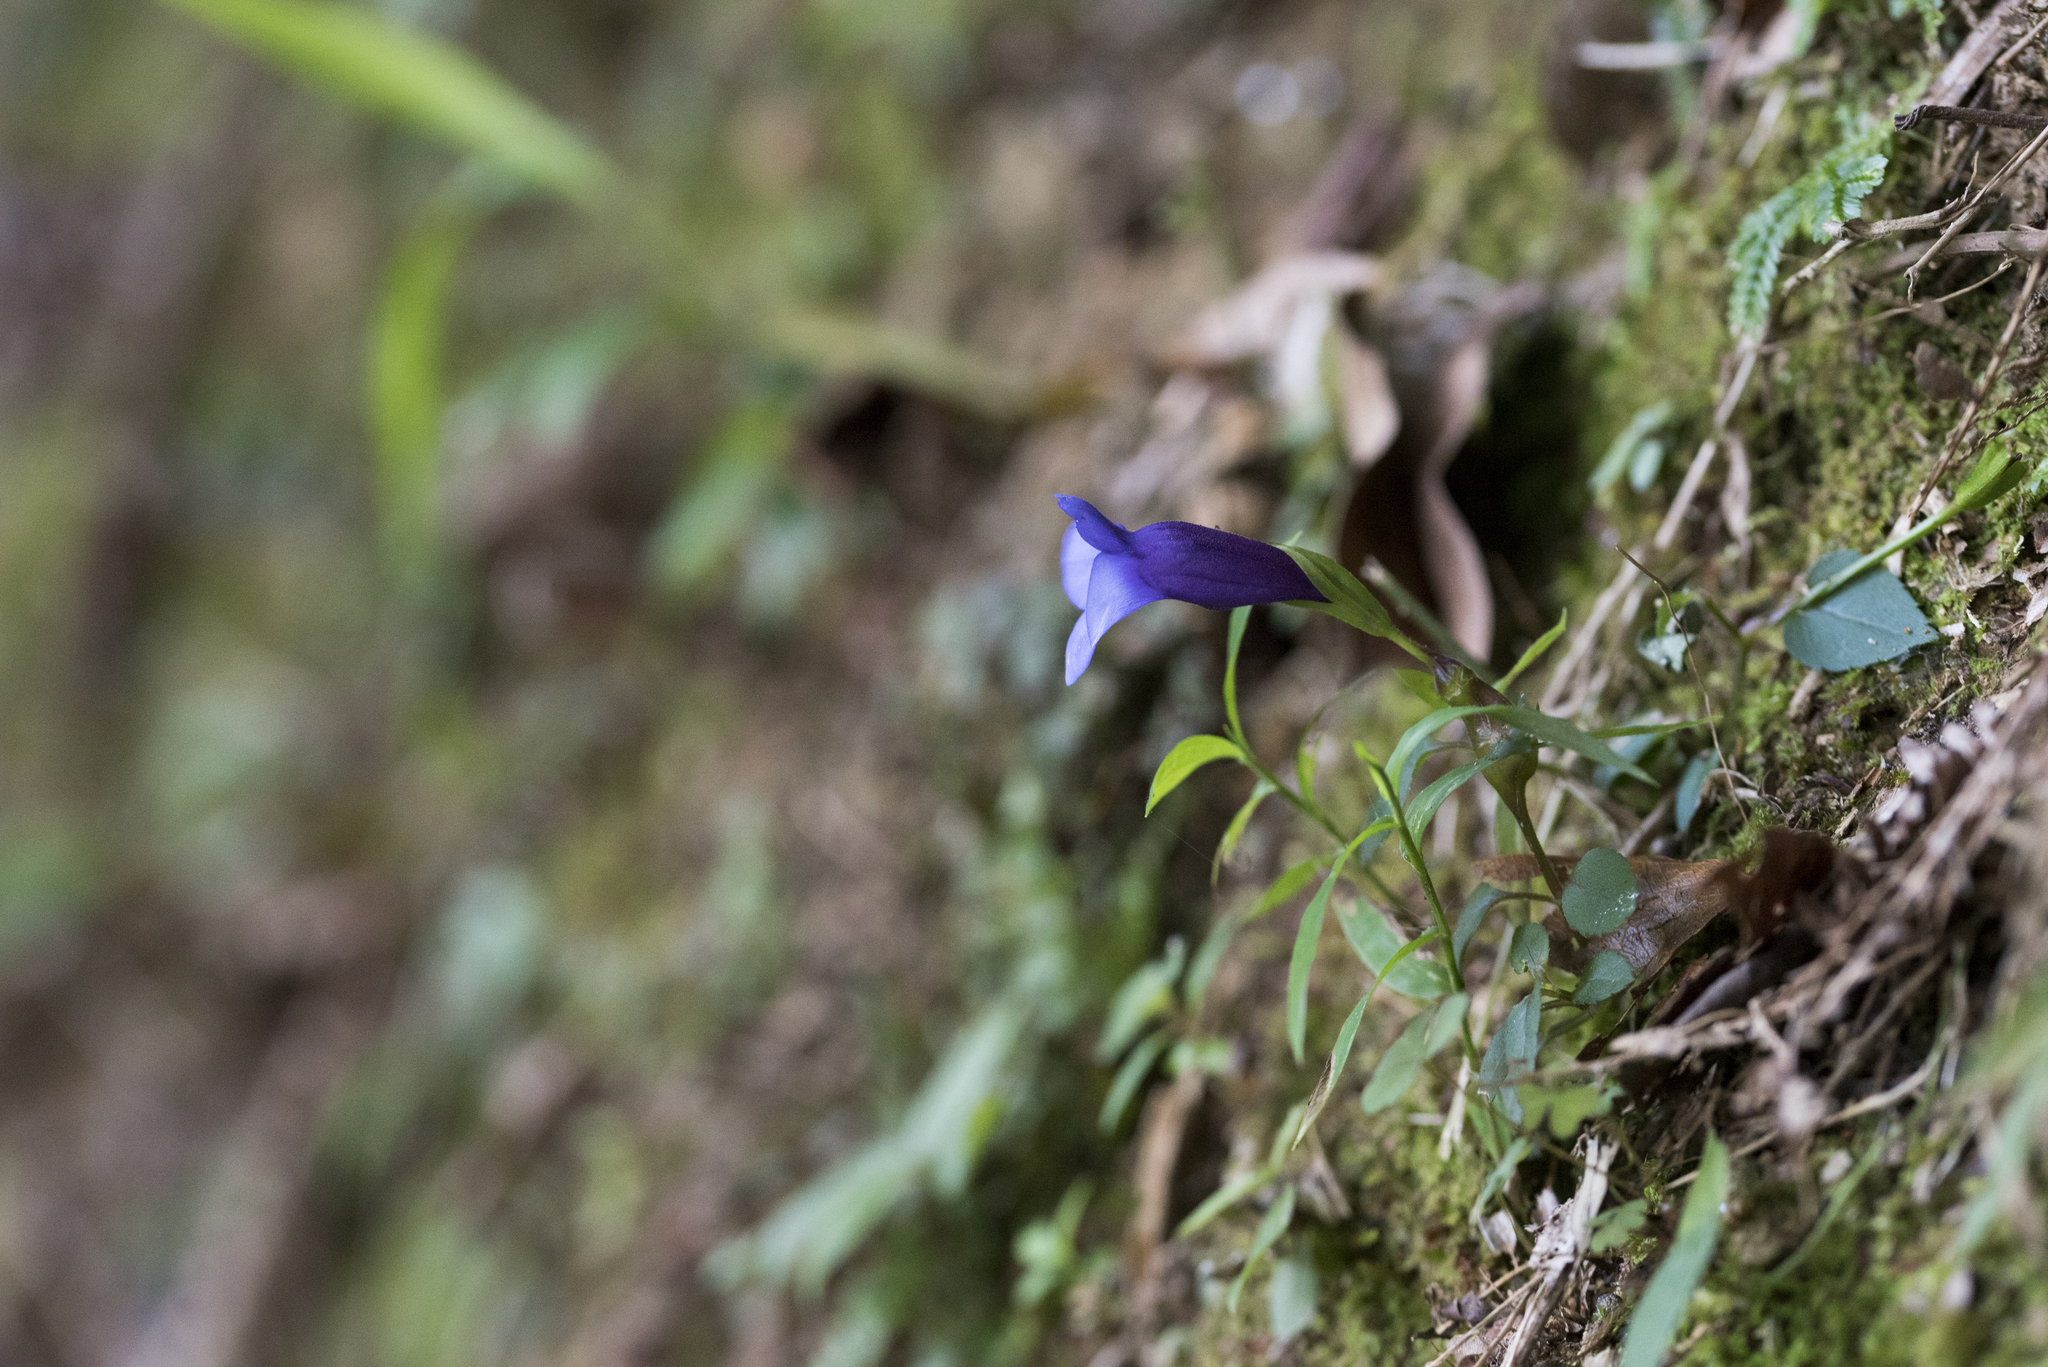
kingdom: Plantae
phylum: Tracheophyta
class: Magnoliopsida
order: Lamiales
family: Linderniaceae
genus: Torenia
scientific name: Torenia concolor
